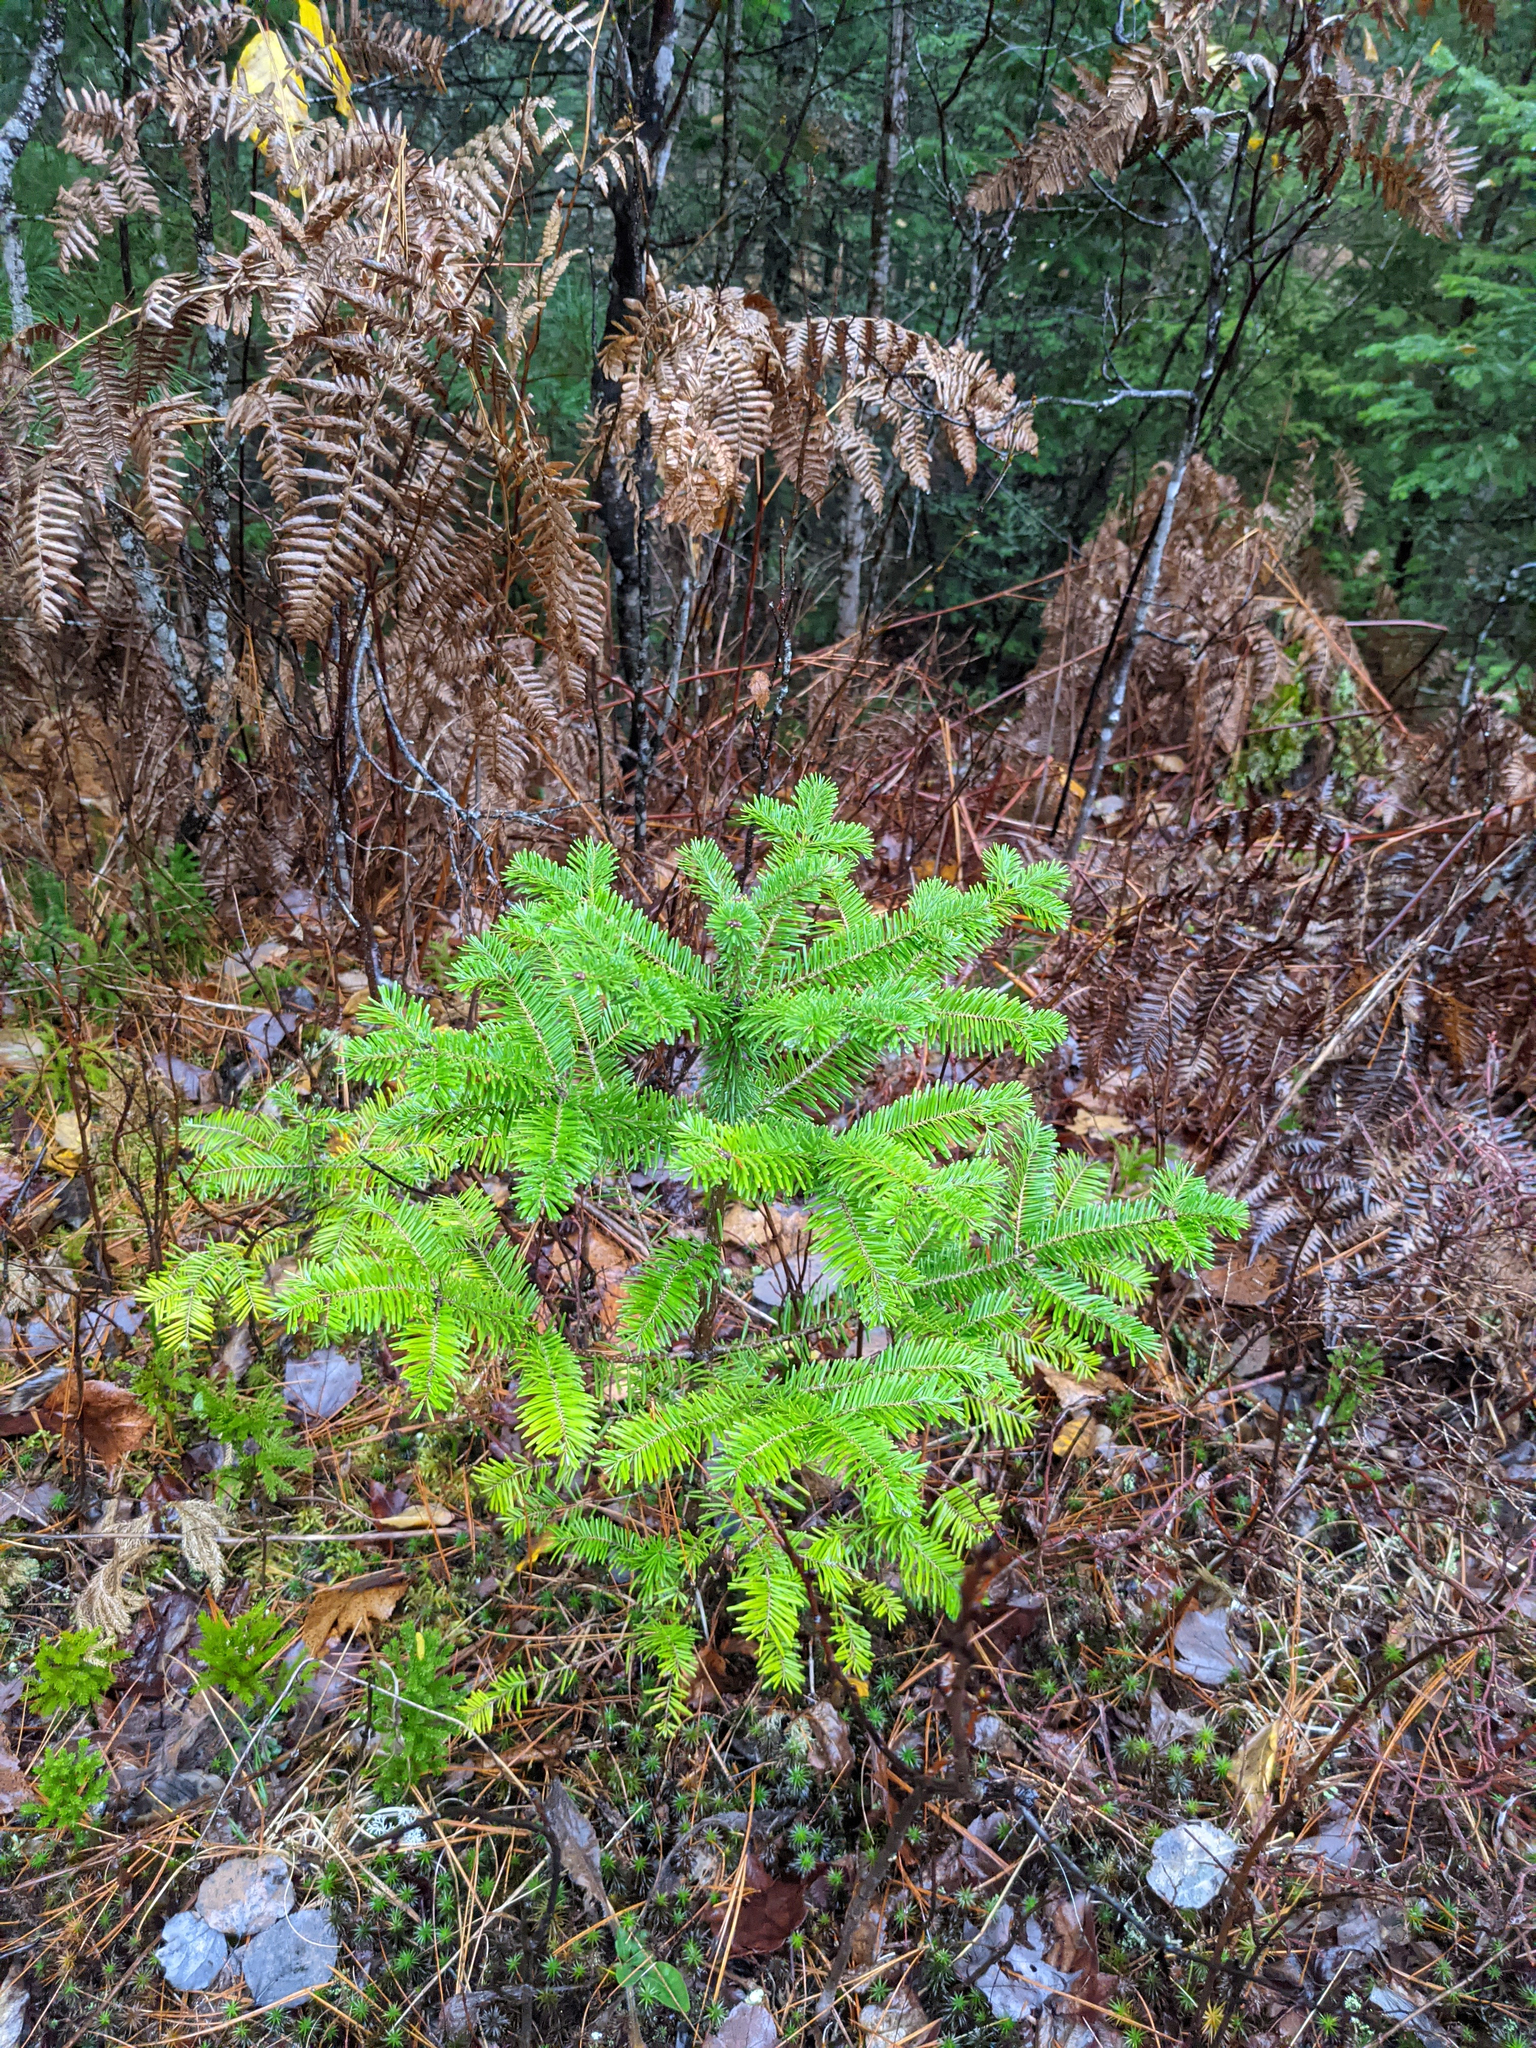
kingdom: Plantae
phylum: Tracheophyta
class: Polypodiopsida
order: Polypodiales
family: Dennstaedtiaceae
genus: Pteridium
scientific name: Pteridium aquilinum
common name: Bracken
